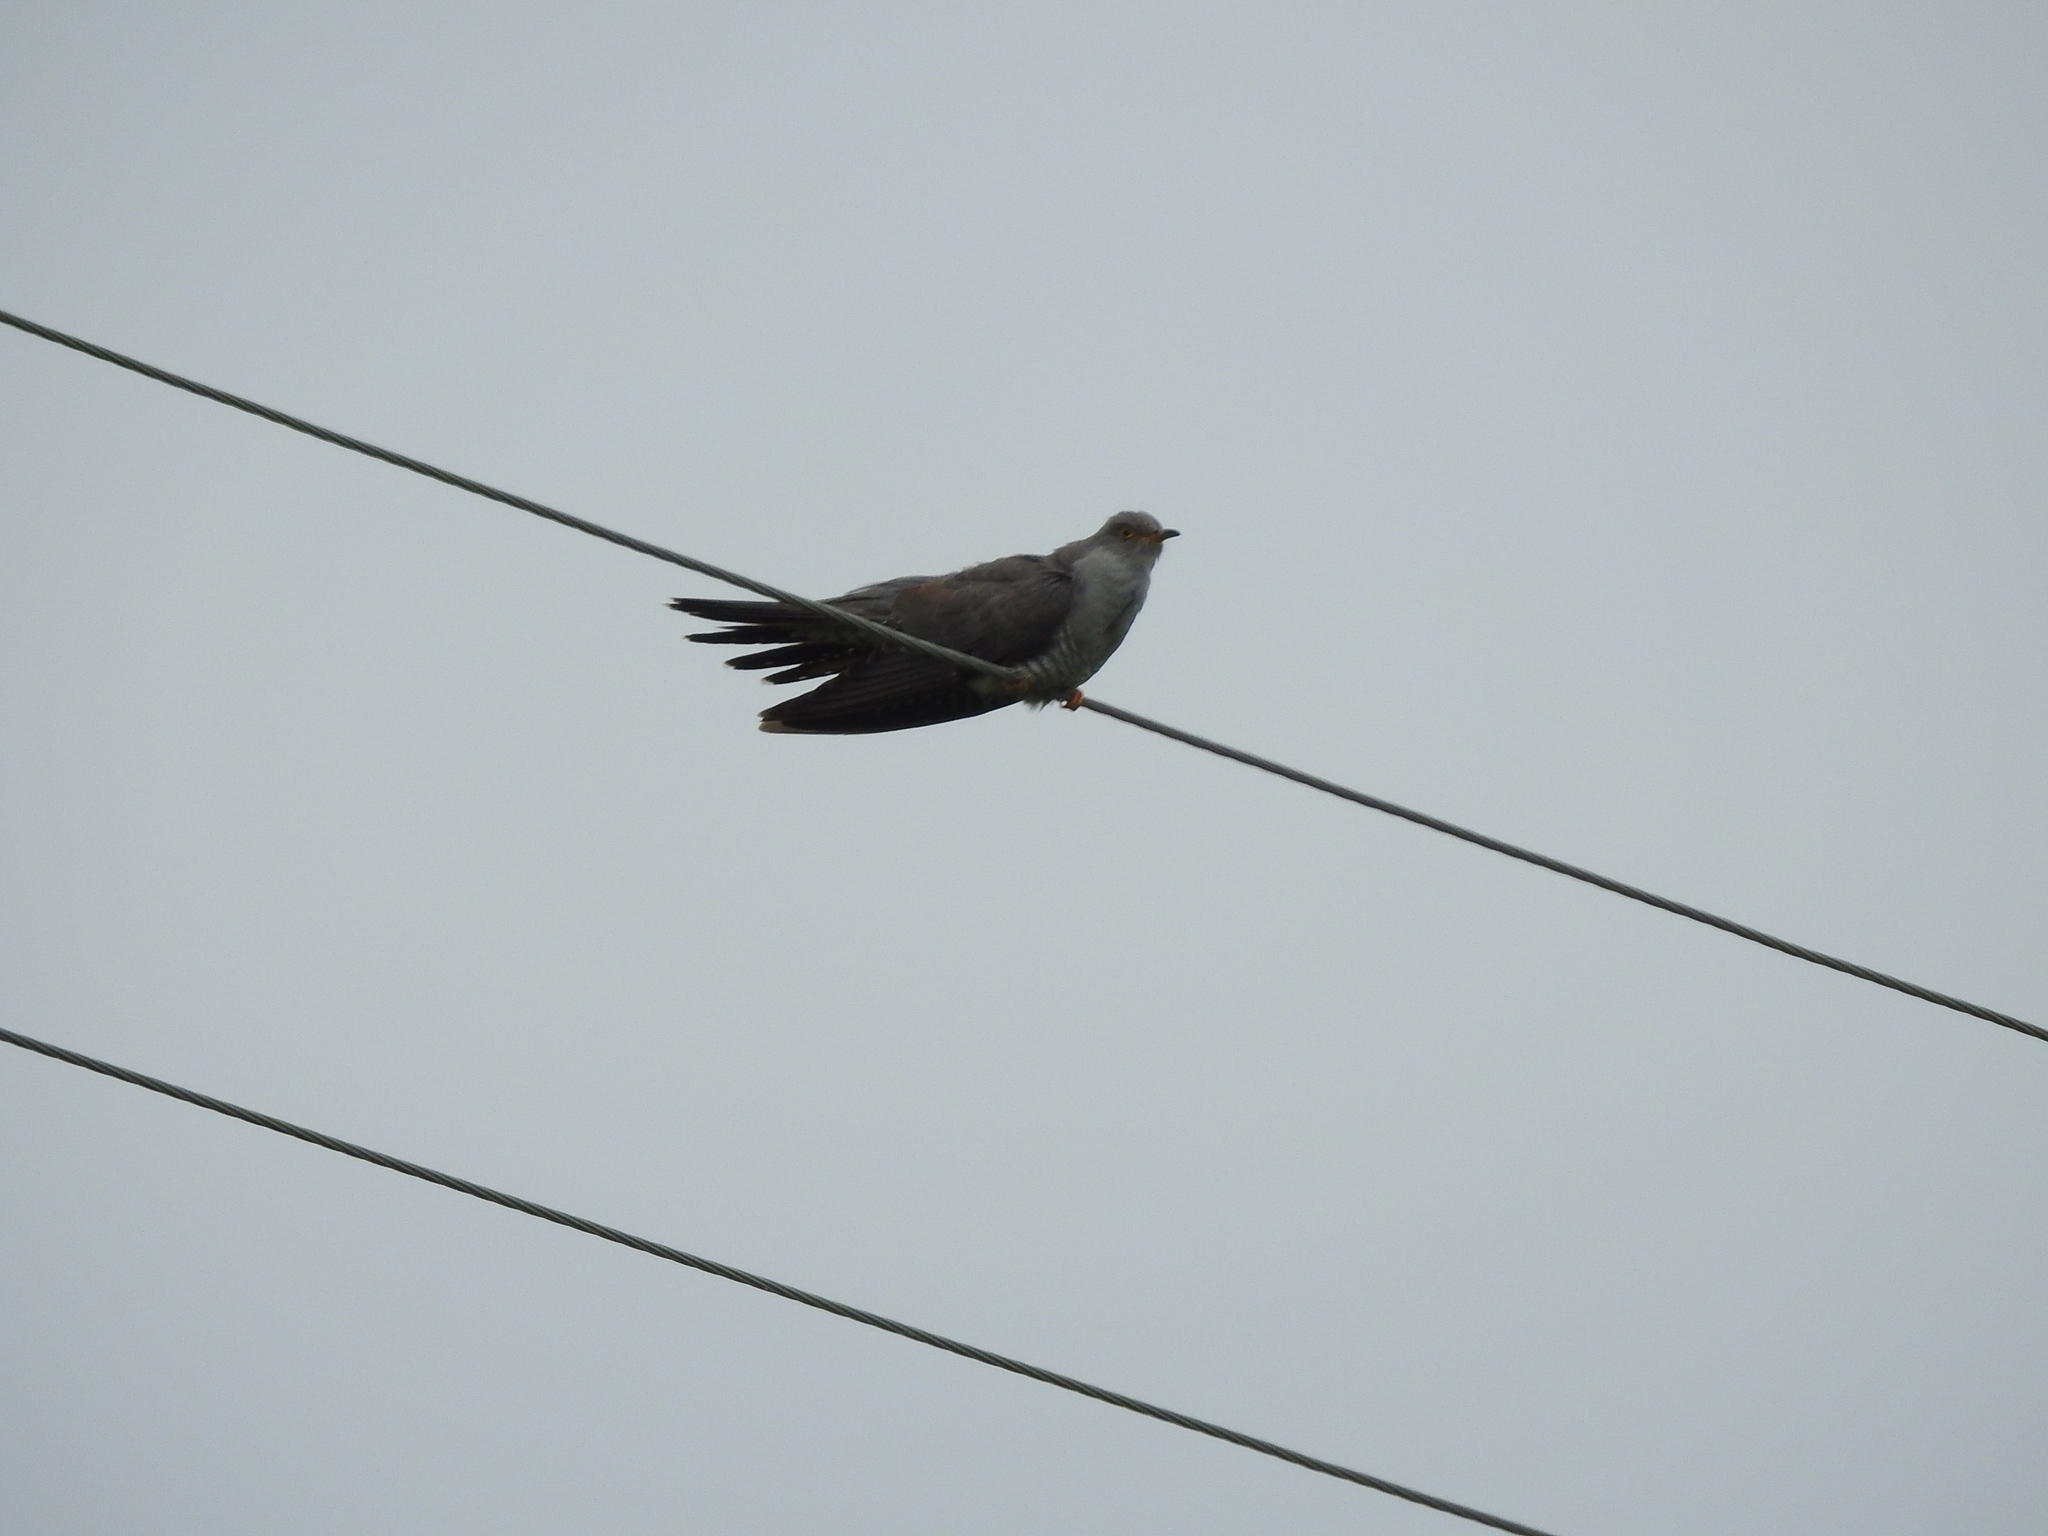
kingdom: Animalia
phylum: Chordata
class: Aves
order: Cuculiformes
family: Cuculidae
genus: Cuculus
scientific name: Cuculus canorus
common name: Common cuckoo
